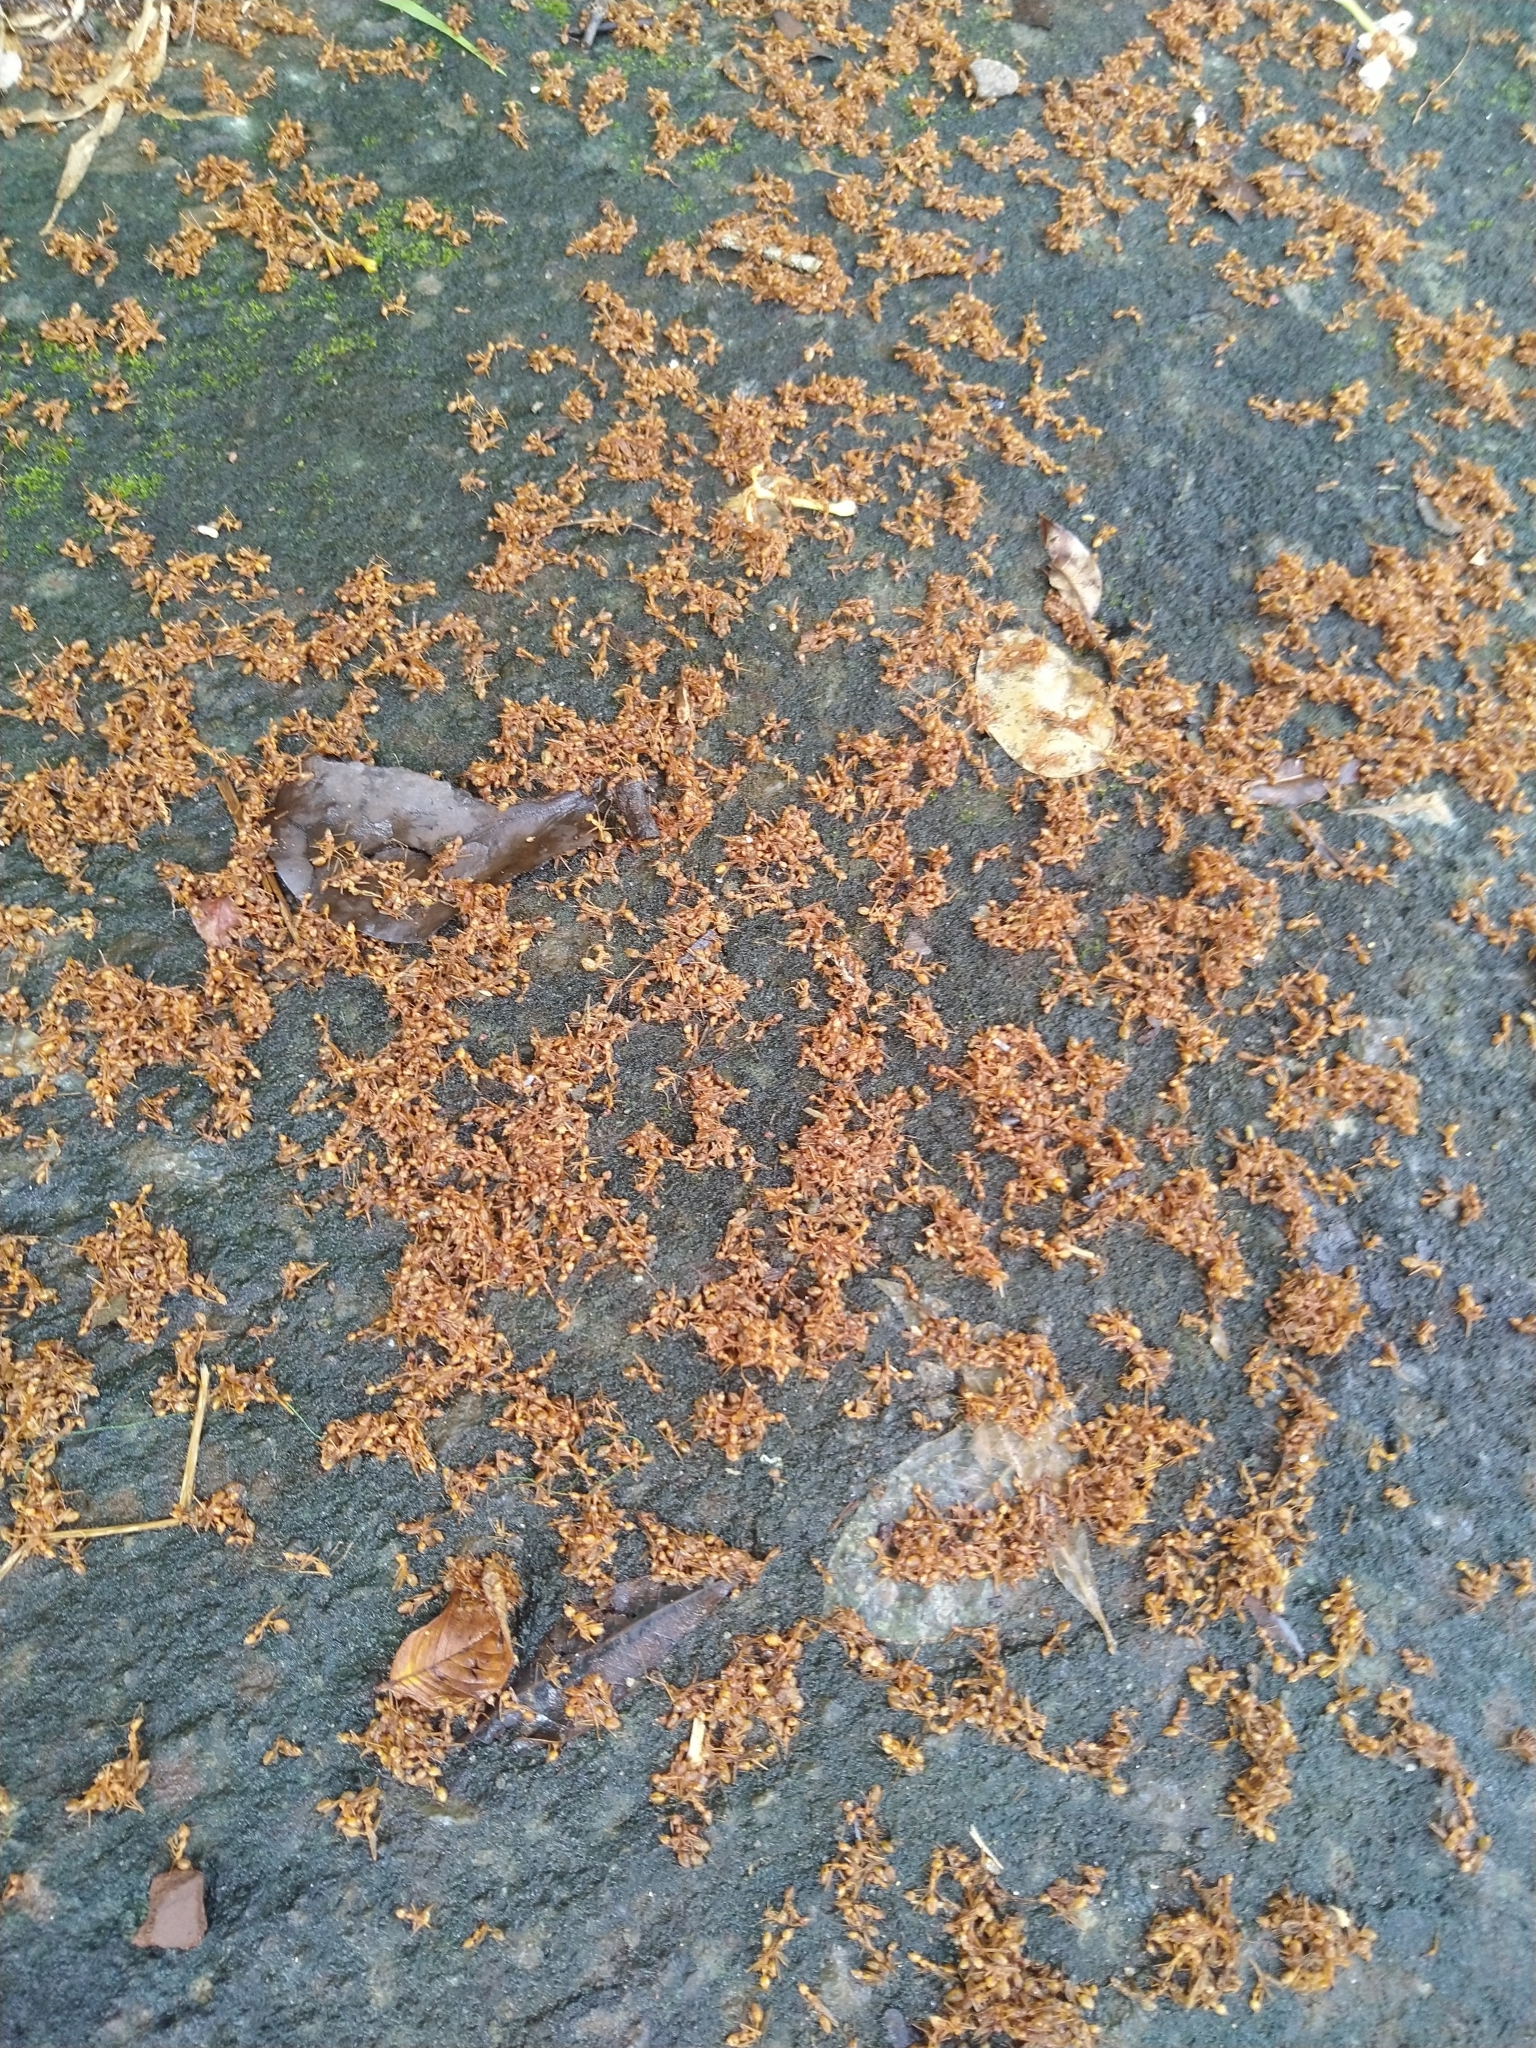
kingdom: Animalia
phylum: Arthropoda
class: Insecta
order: Hymenoptera
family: Formicidae
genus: Oecophylla
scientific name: Oecophylla smaragdina
